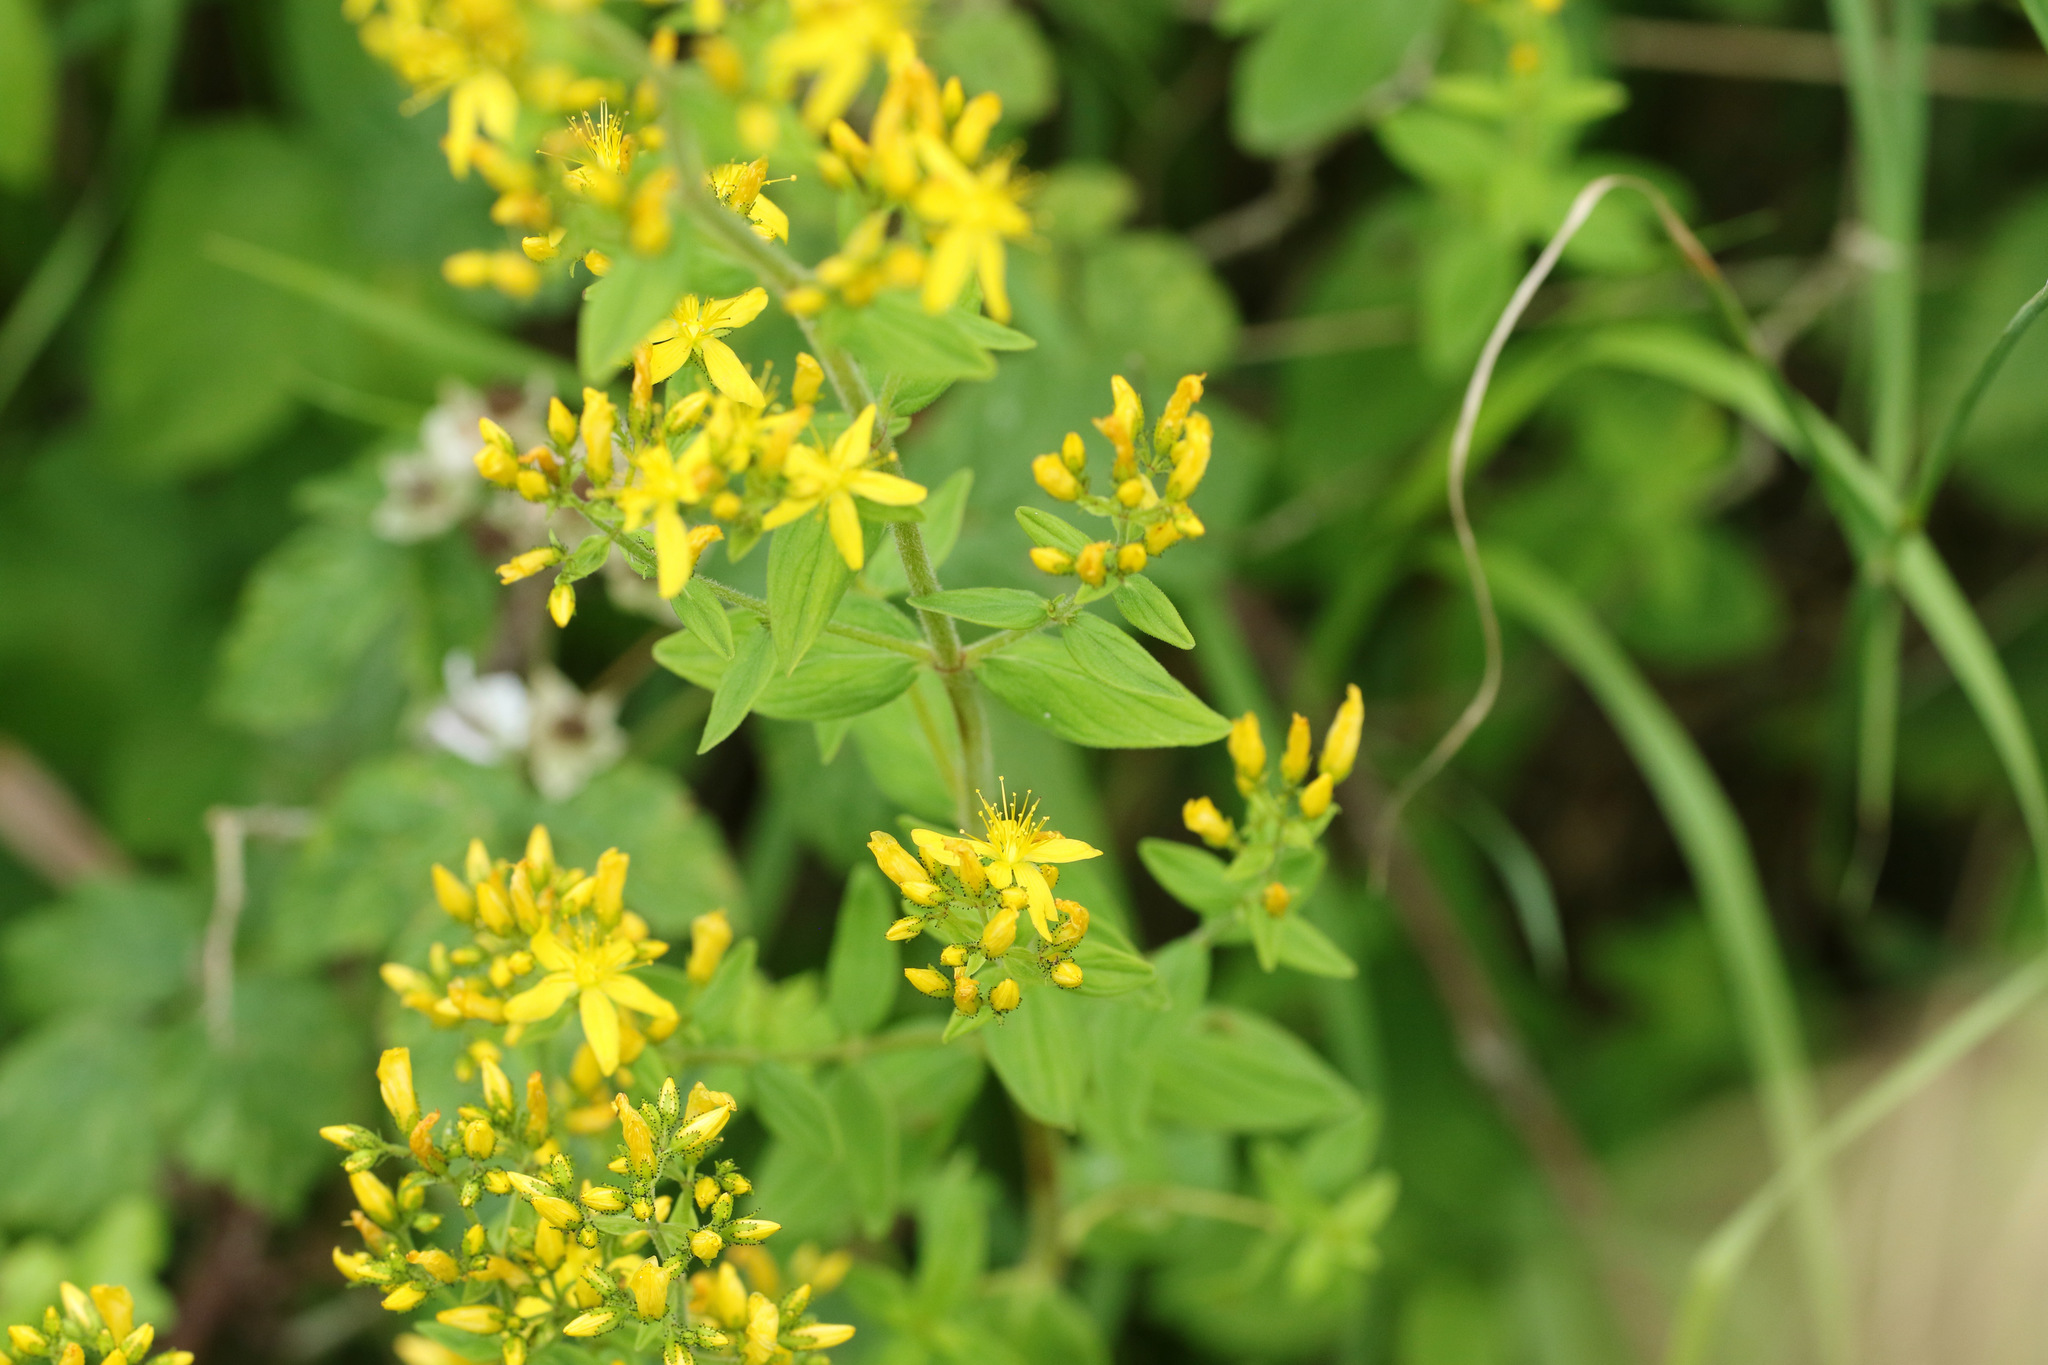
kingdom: Plantae
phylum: Tracheophyta
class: Magnoliopsida
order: Malpighiales
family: Hypericaceae
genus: Hypericum
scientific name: Hypericum hirsutum
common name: Hairy st. john's-wort
